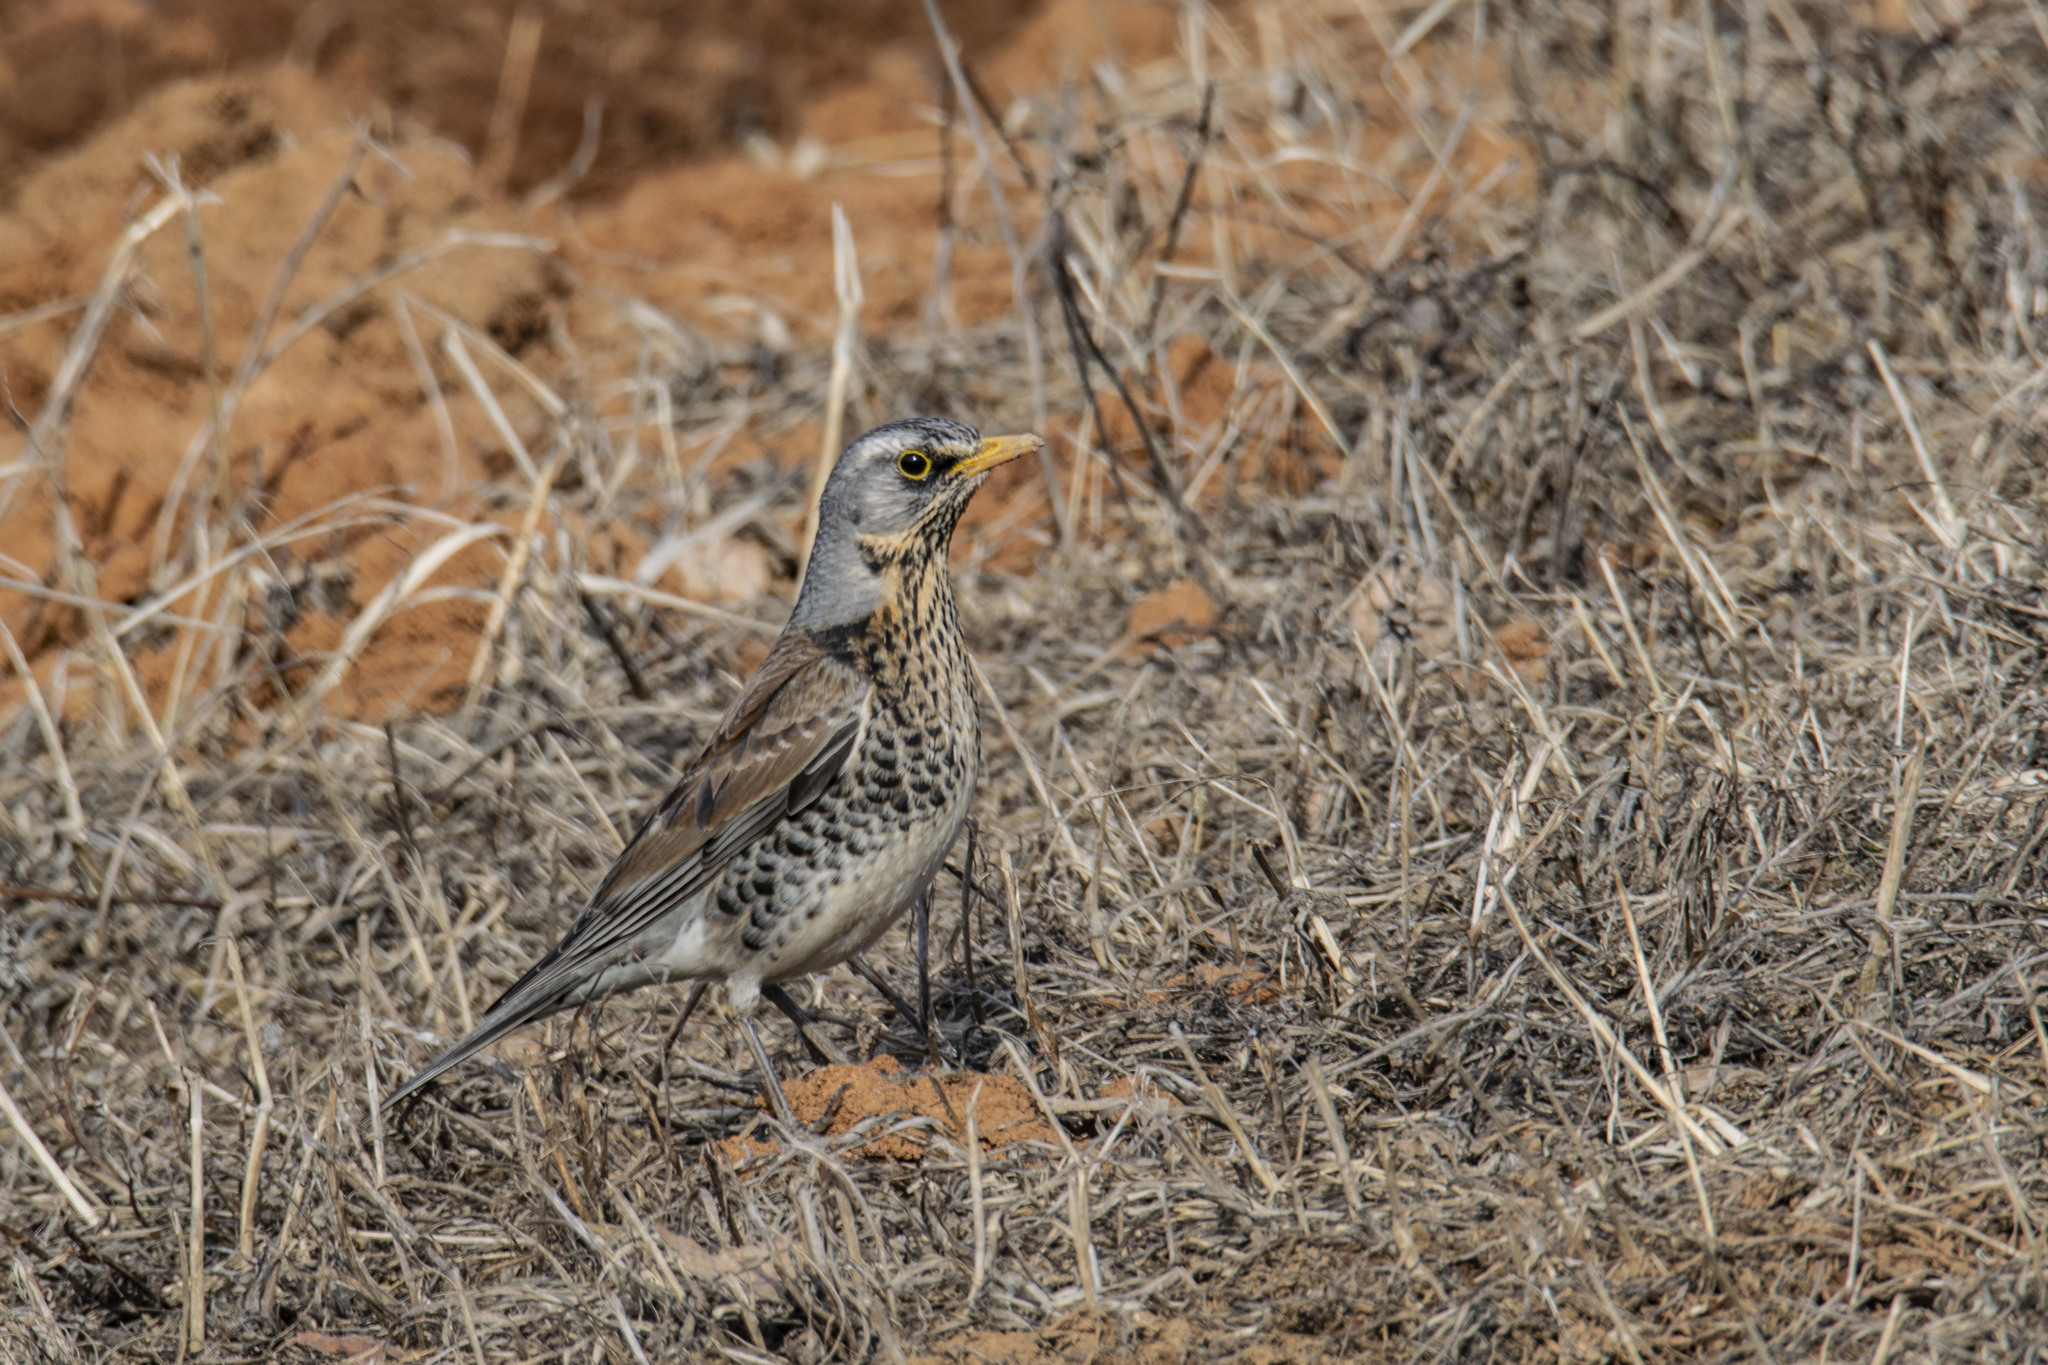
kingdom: Animalia
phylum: Chordata
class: Aves
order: Passeriformes
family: Turdidae
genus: Turdus
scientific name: Turdus pilaris
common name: Fieldfare
